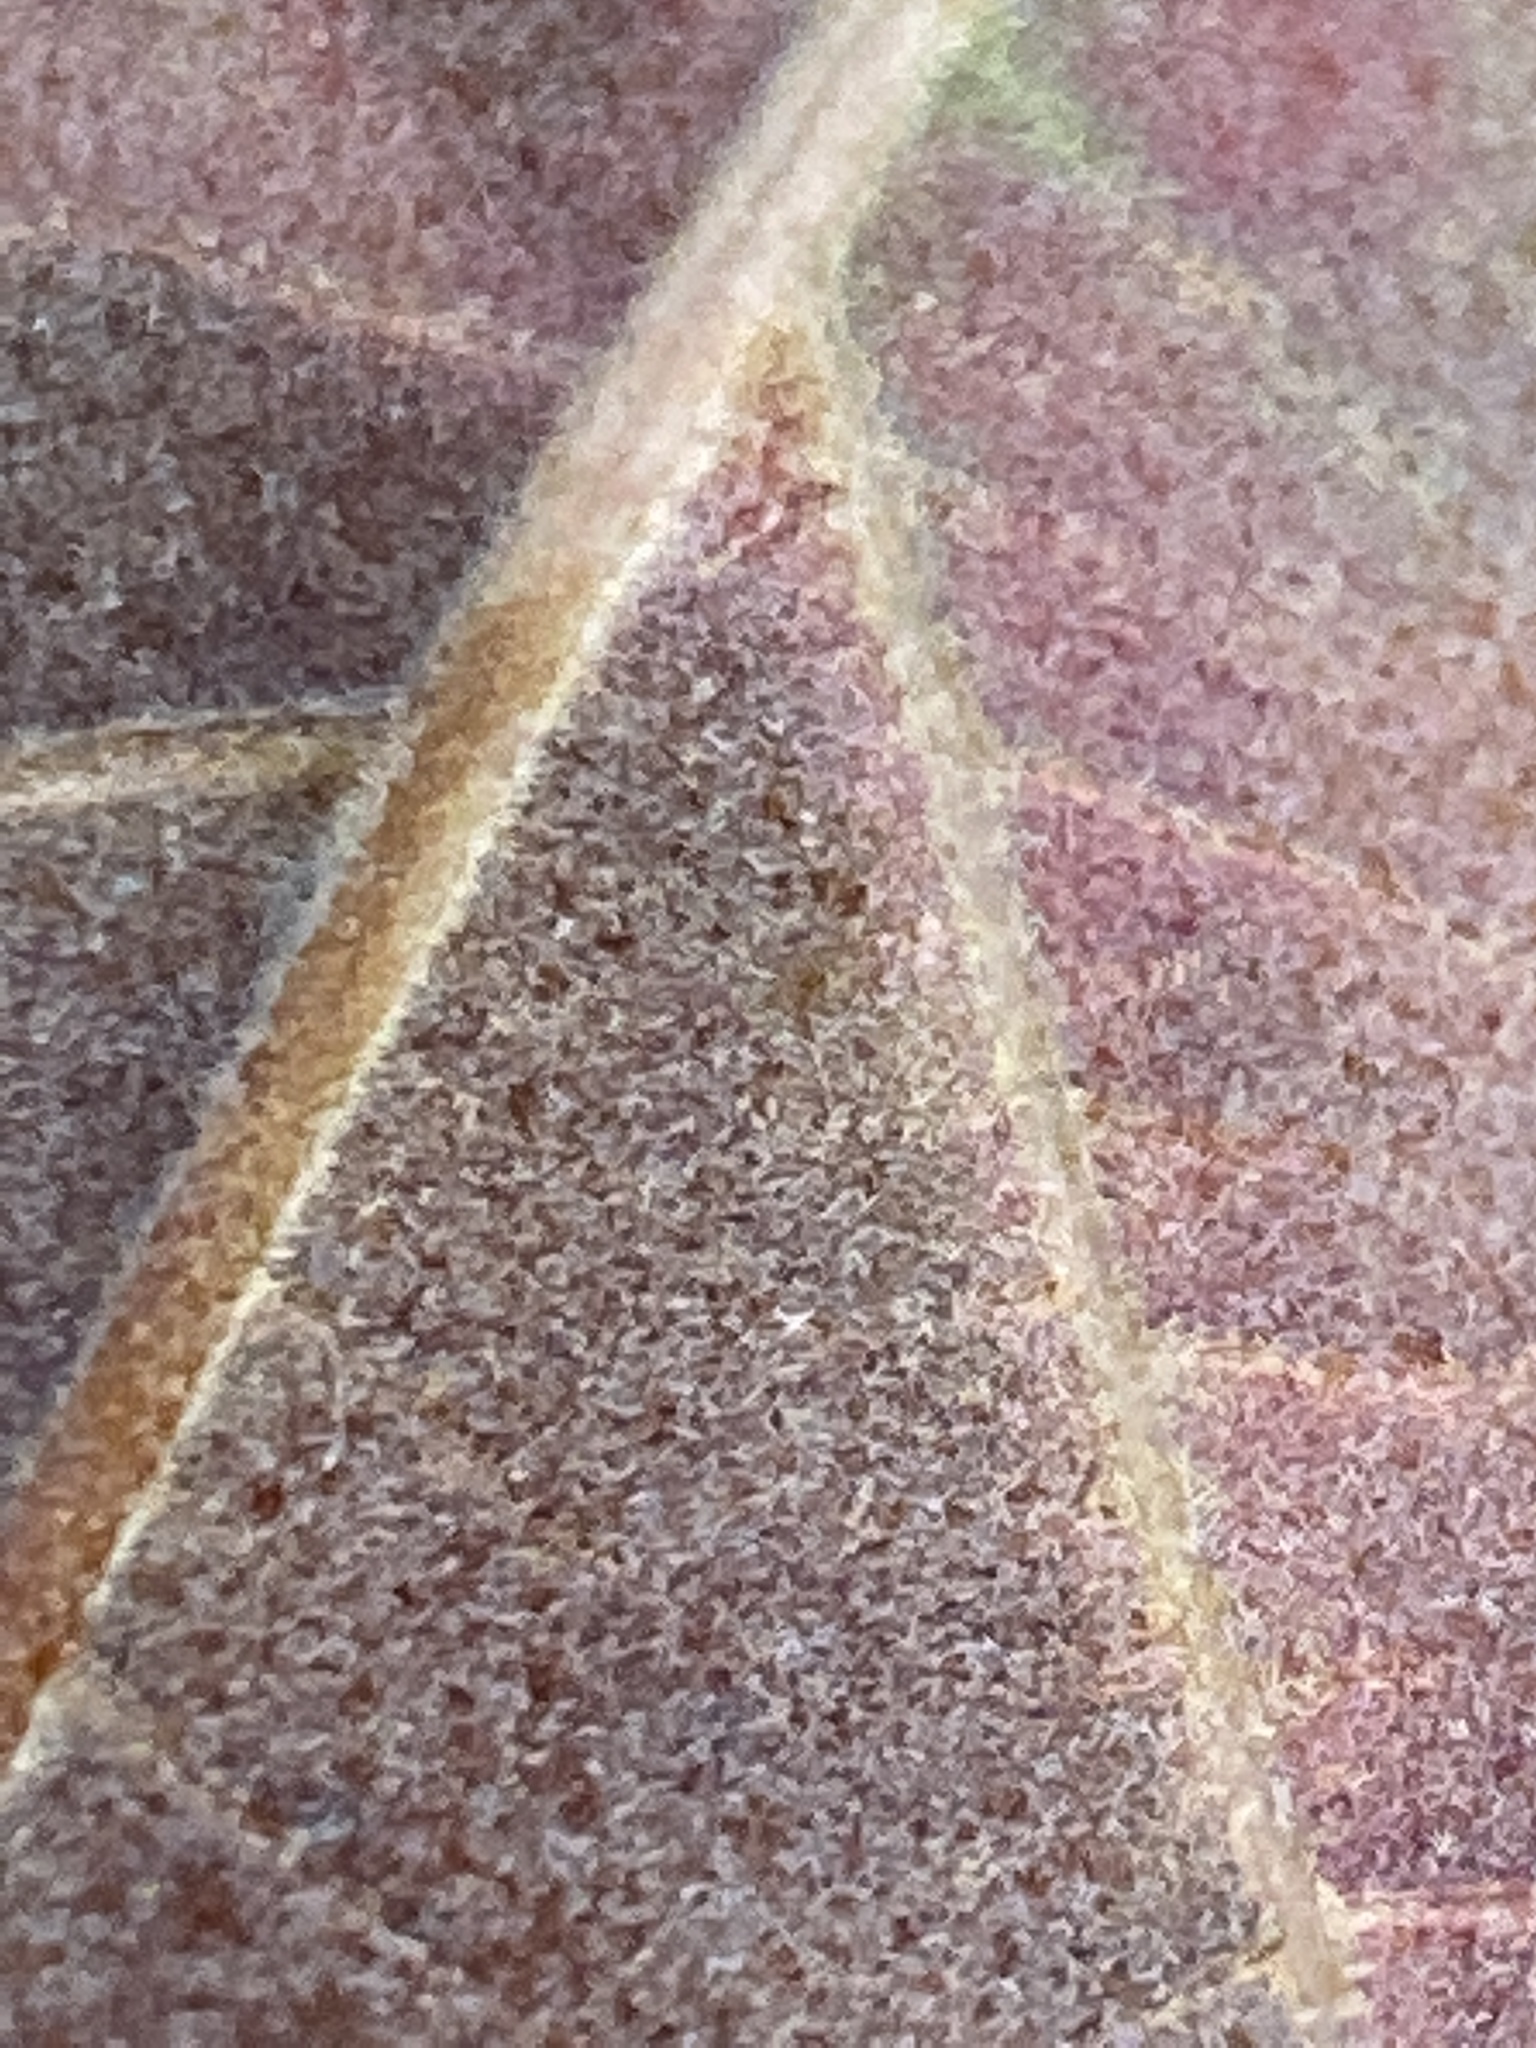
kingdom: Plantae
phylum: Tracheophyta
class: Magnoliopsida
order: Fagales
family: Fagaceae
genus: Quercus
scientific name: Quercus falcata
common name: Southern red oak
